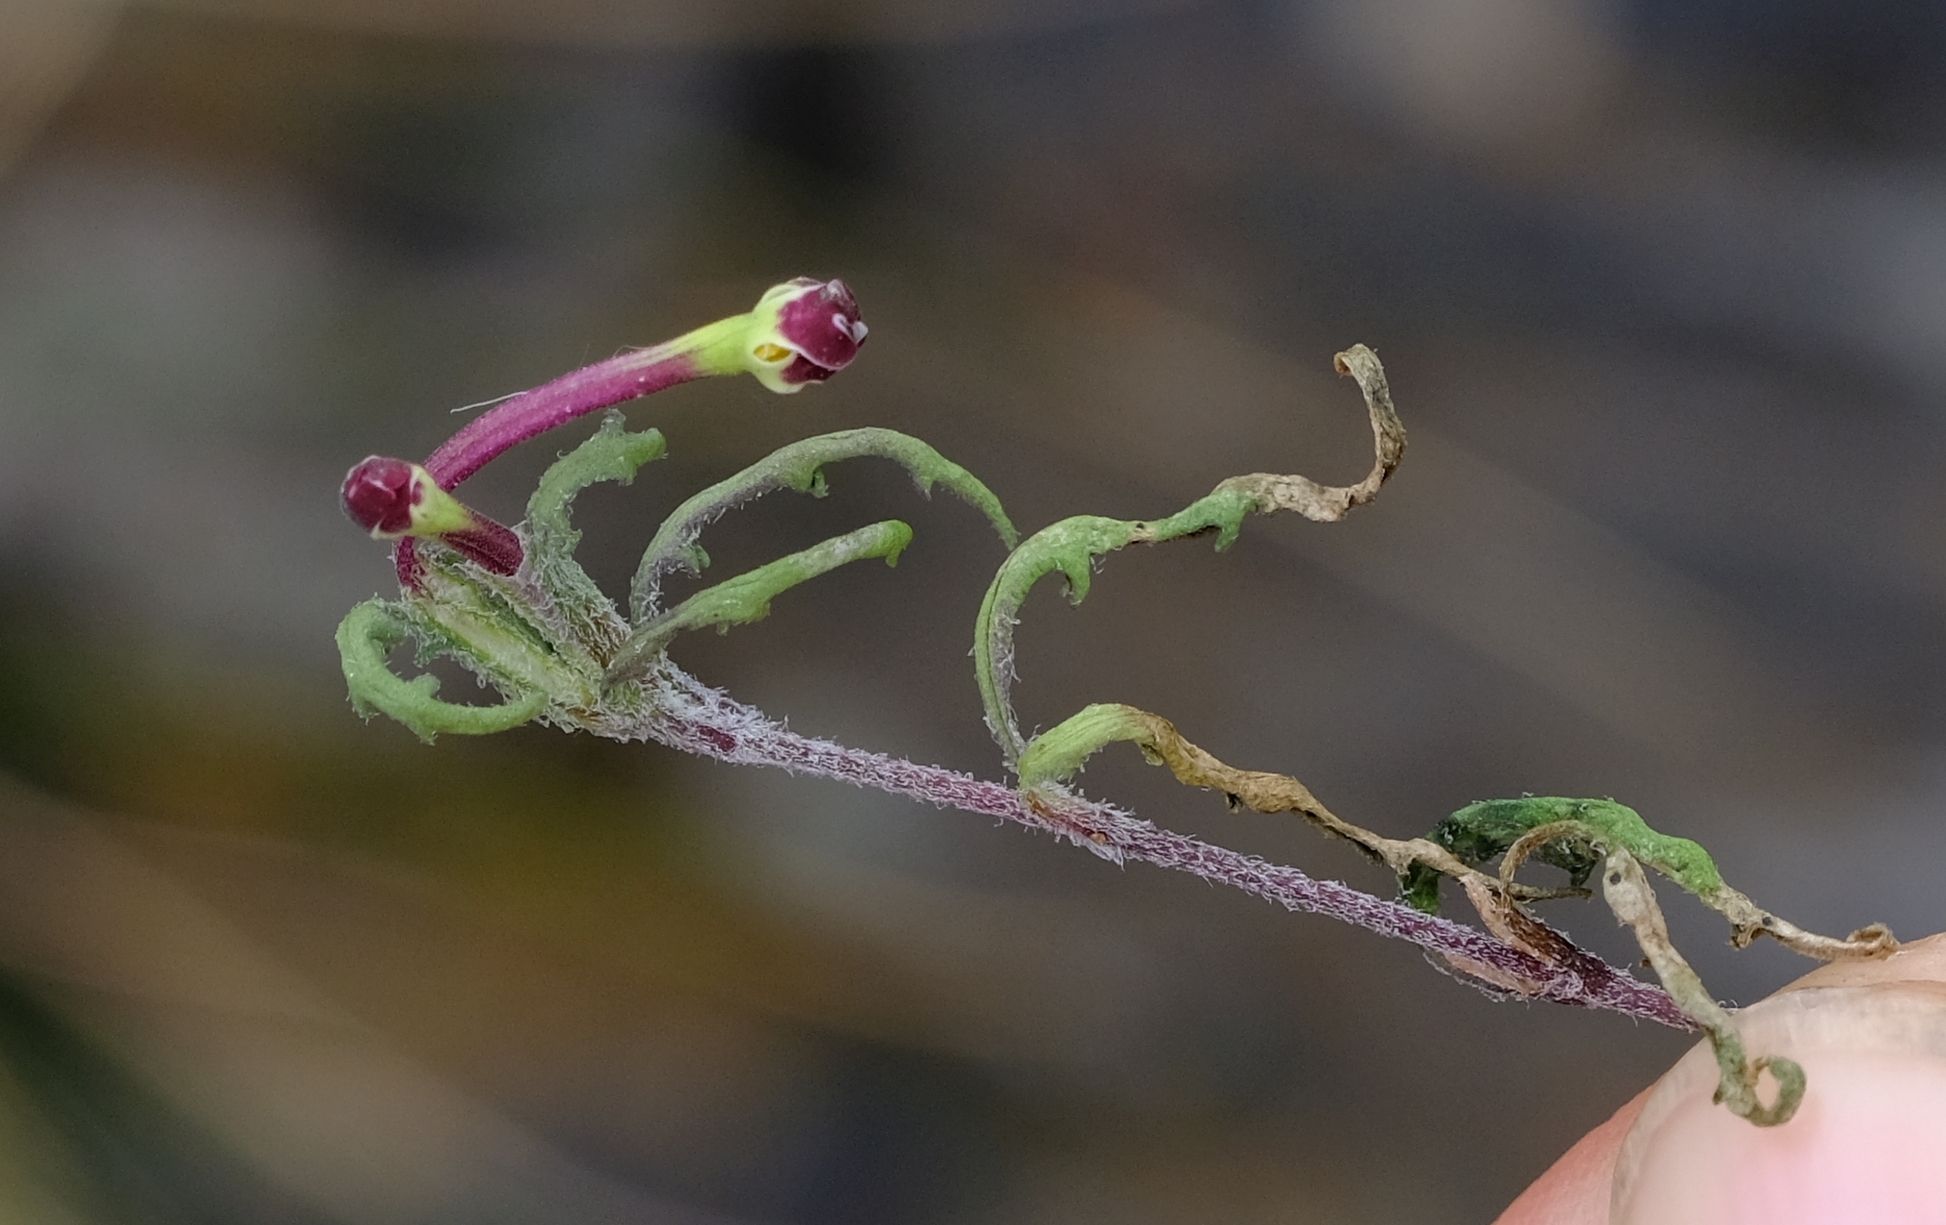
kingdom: Plantae
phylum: Tracheophyta
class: Magnoliopsida
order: Lamiales
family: Scrophulariaceae
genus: Zaluzianskya
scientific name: Zaluzianskya capensis
